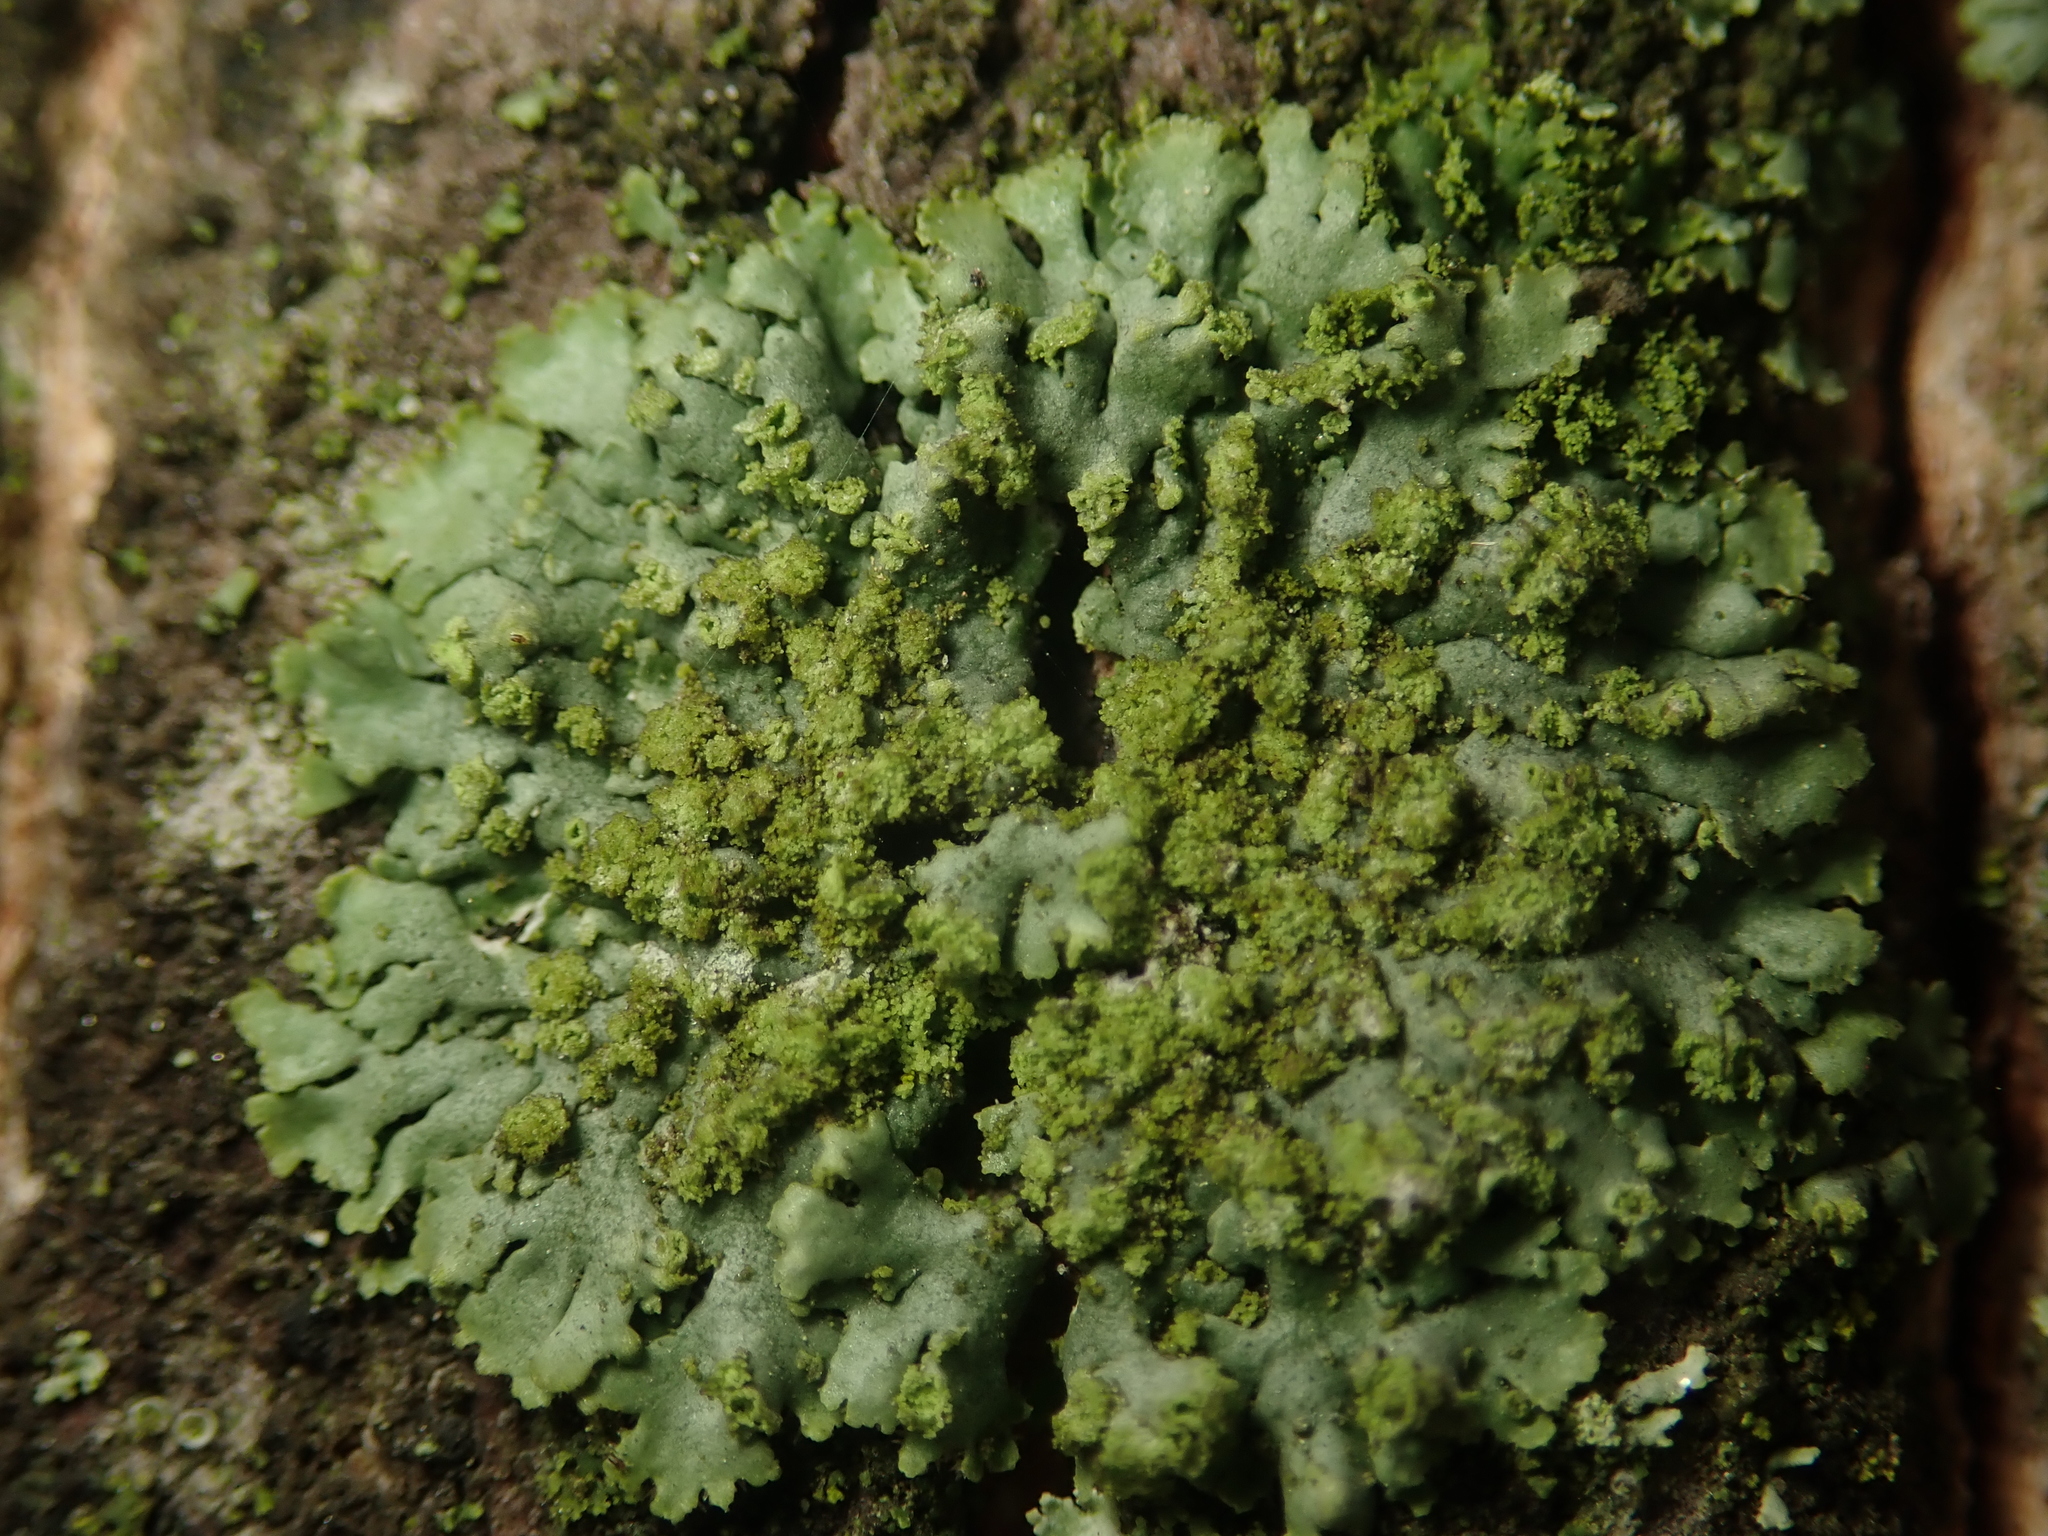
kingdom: Fungi
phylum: Ascomycota
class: Lecanoromycetes
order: Caliciales
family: Physciaceae
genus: Phaeophyscia
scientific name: Phaeophyscia orbicularis
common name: Mealy shadow lichen
